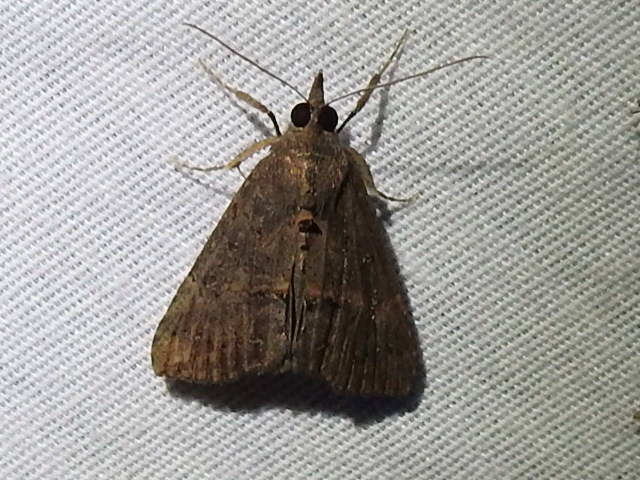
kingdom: Animalia
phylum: Arthropoda
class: Insecta
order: Lepidoptera
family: Erebidae
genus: Hypena
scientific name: Hypena scabra
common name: Green cloverworm
